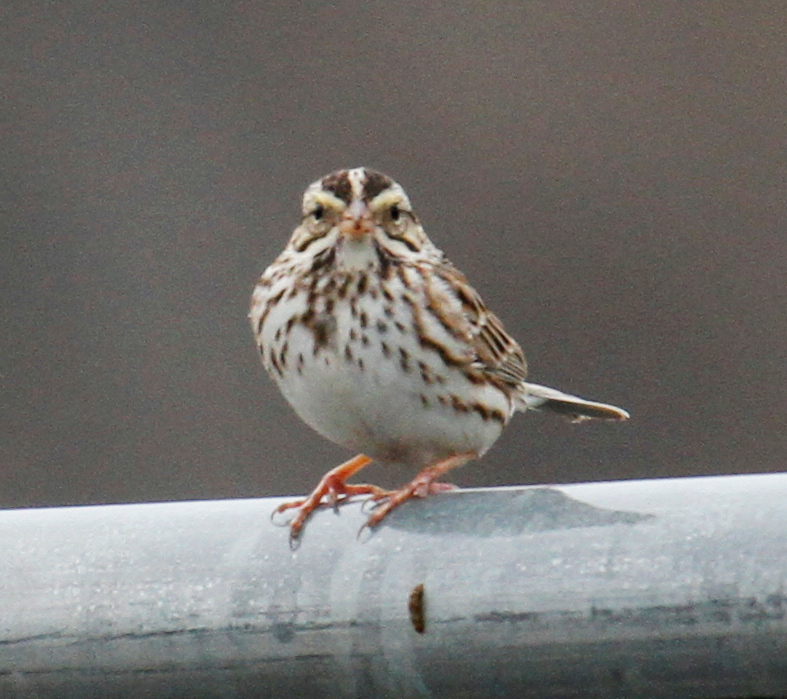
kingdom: Animalia
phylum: Chordata
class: Aves
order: Passeriformes
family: Passerellidae
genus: Passerculus
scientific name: Passerculus sandwichensis
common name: Savannah sparrow
